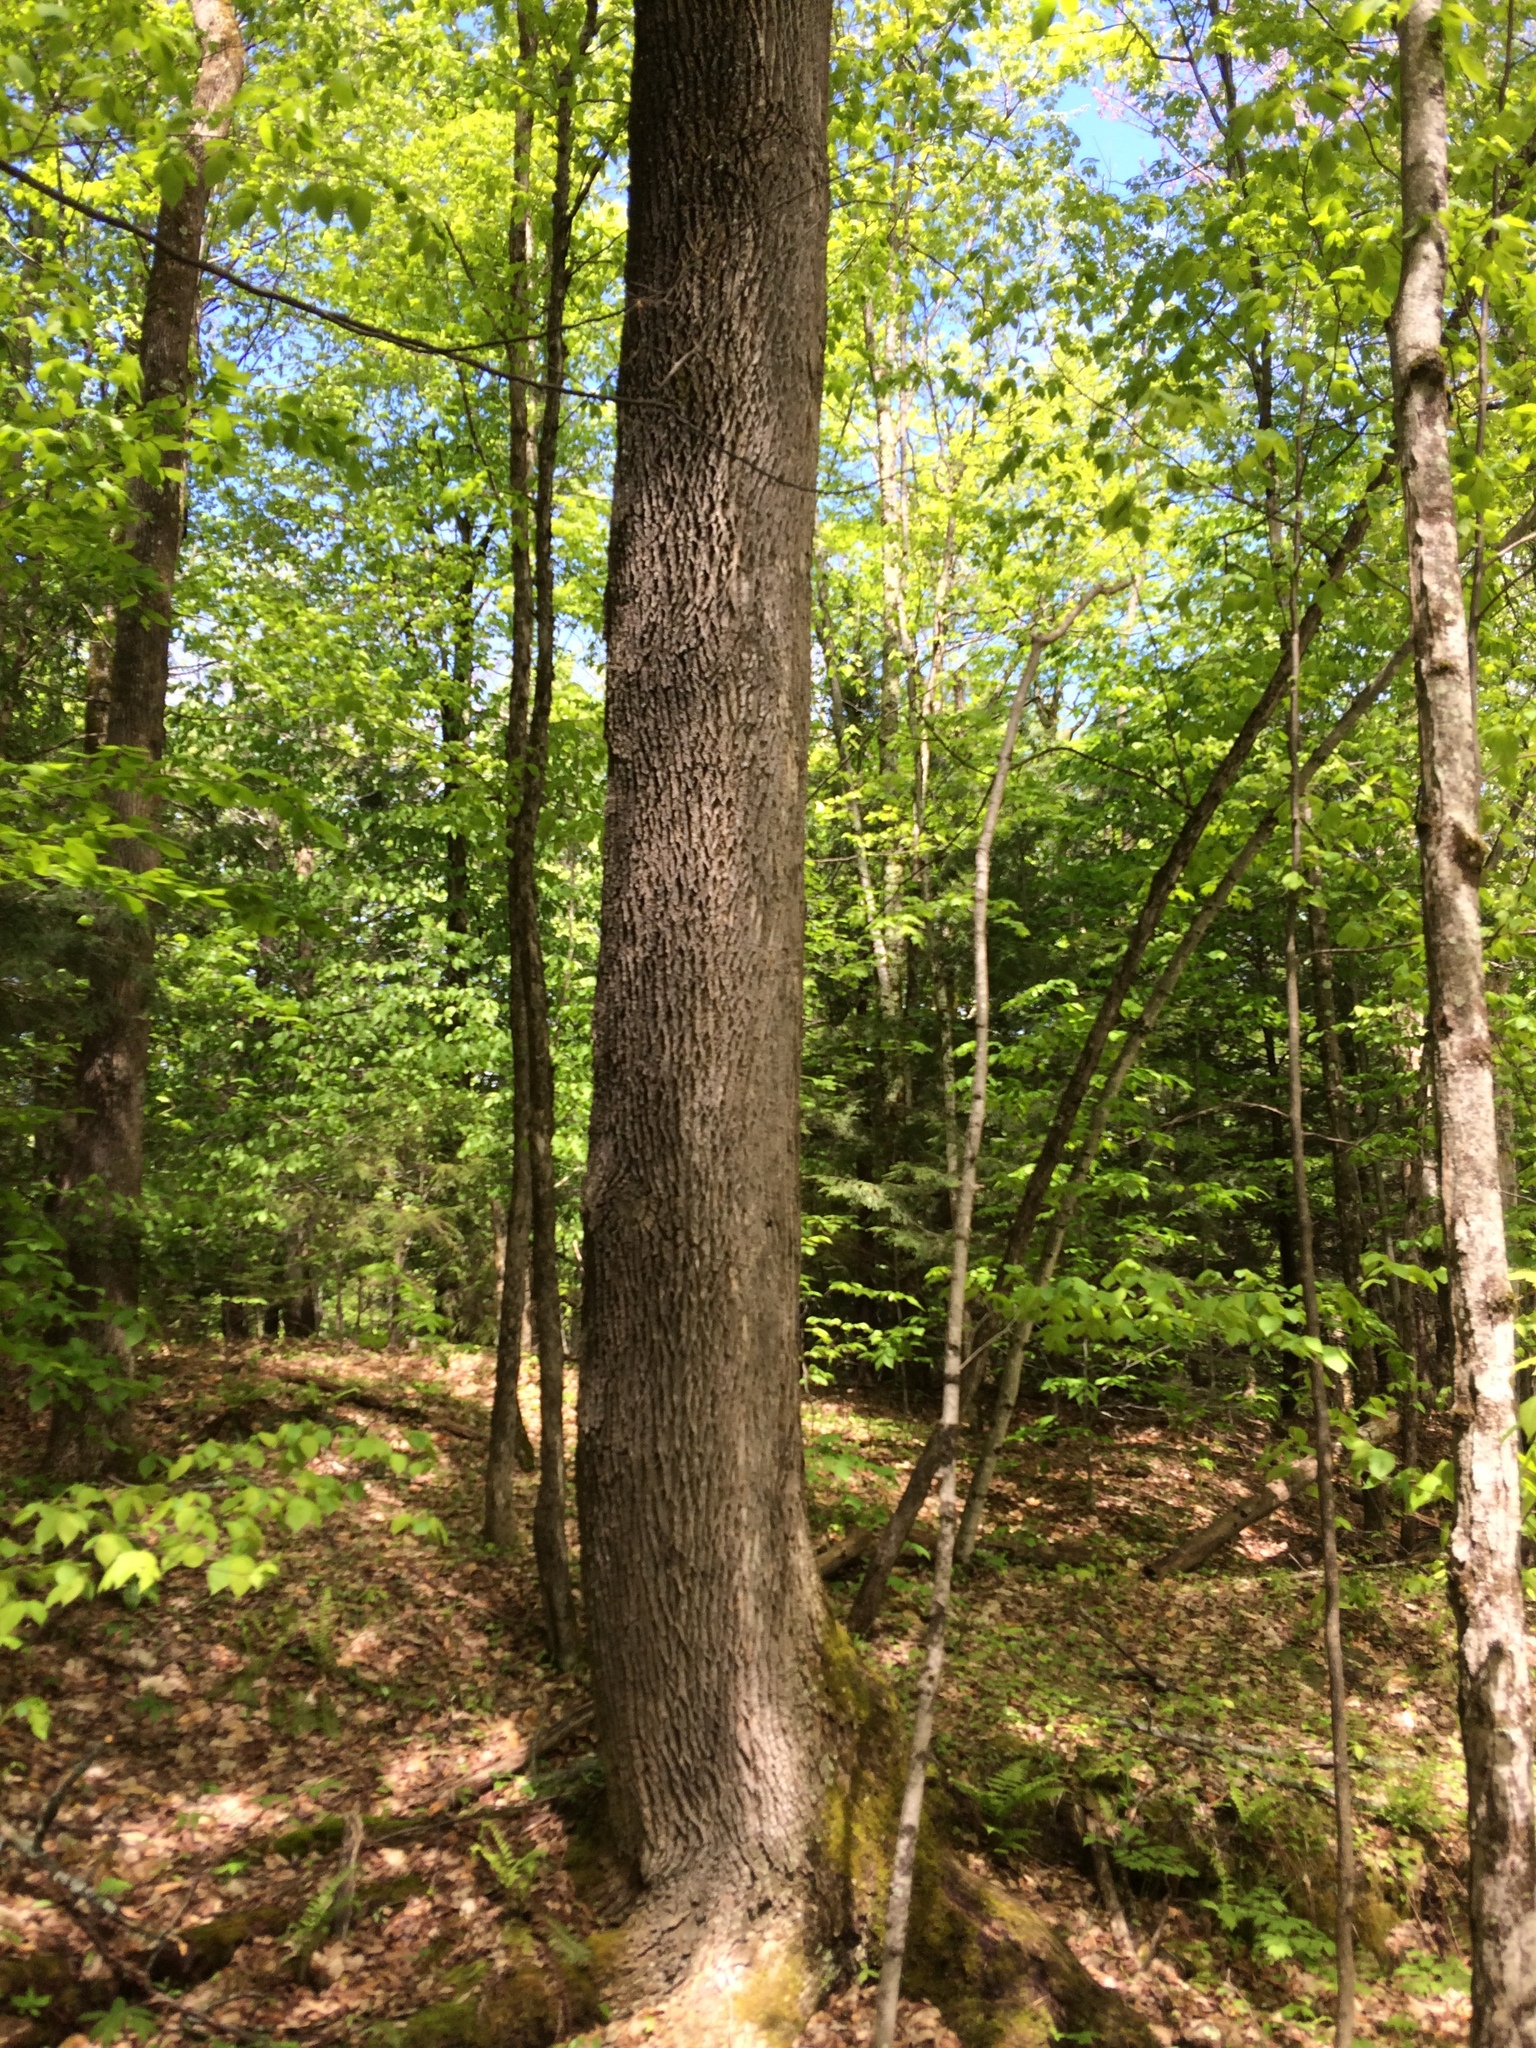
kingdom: Plantae
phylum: Tracheophyta
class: Magnoliopsida
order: Lamiales
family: Oleaceae
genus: Fraxinus
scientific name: Fraxinus americana
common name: White ash
